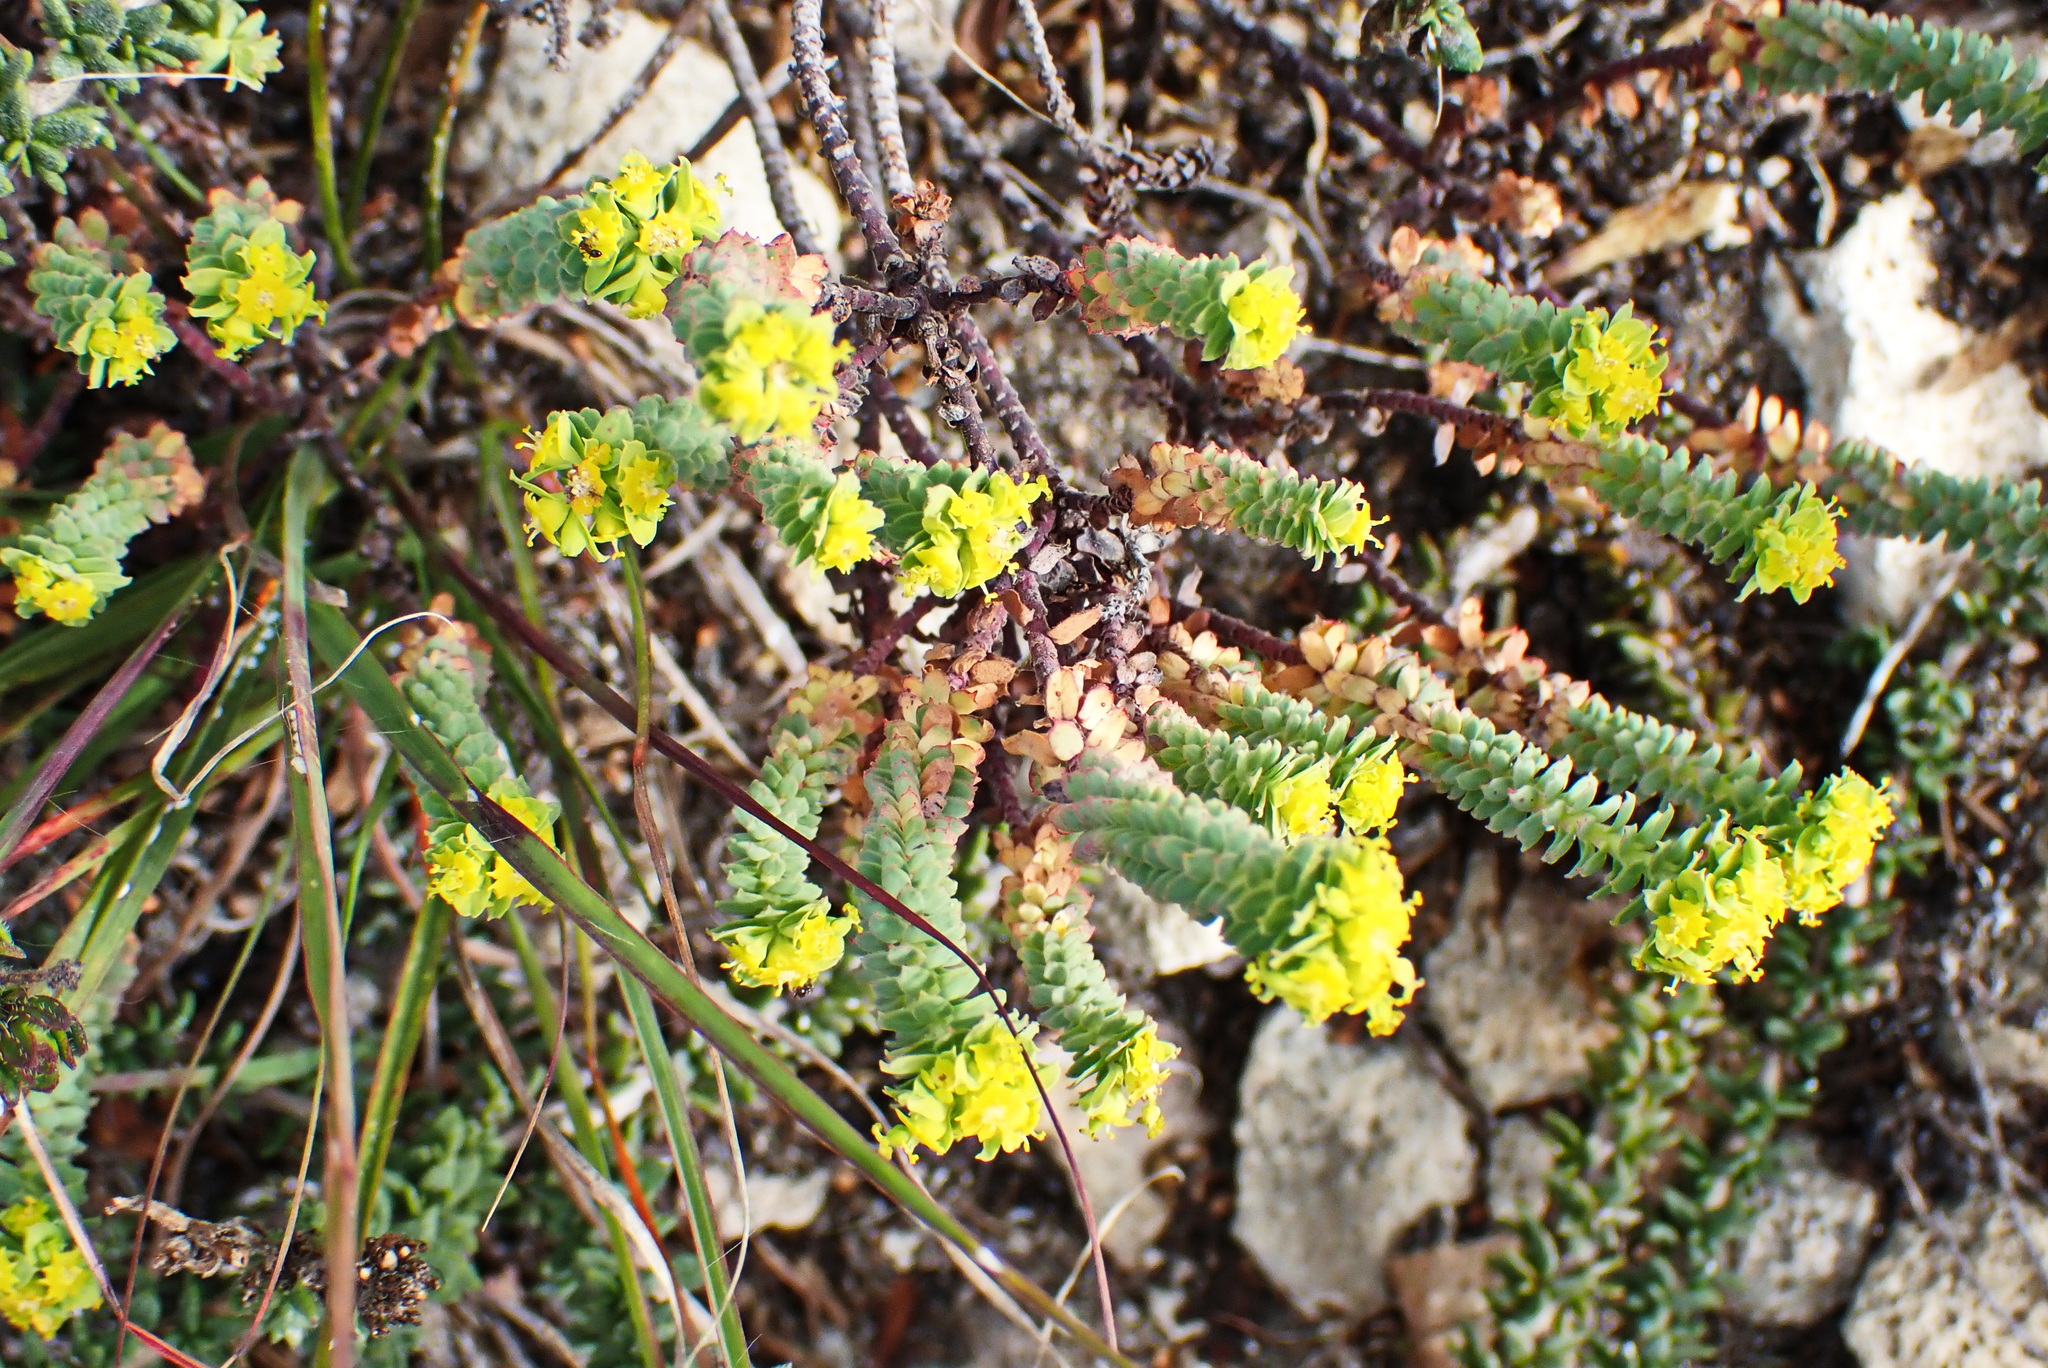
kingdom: Plantae
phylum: Tracheophyta
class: Magnoliopsida
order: Malpighiales
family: Euphorbiaceae
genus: Euphorbia
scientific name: Euphorbia foliosa
